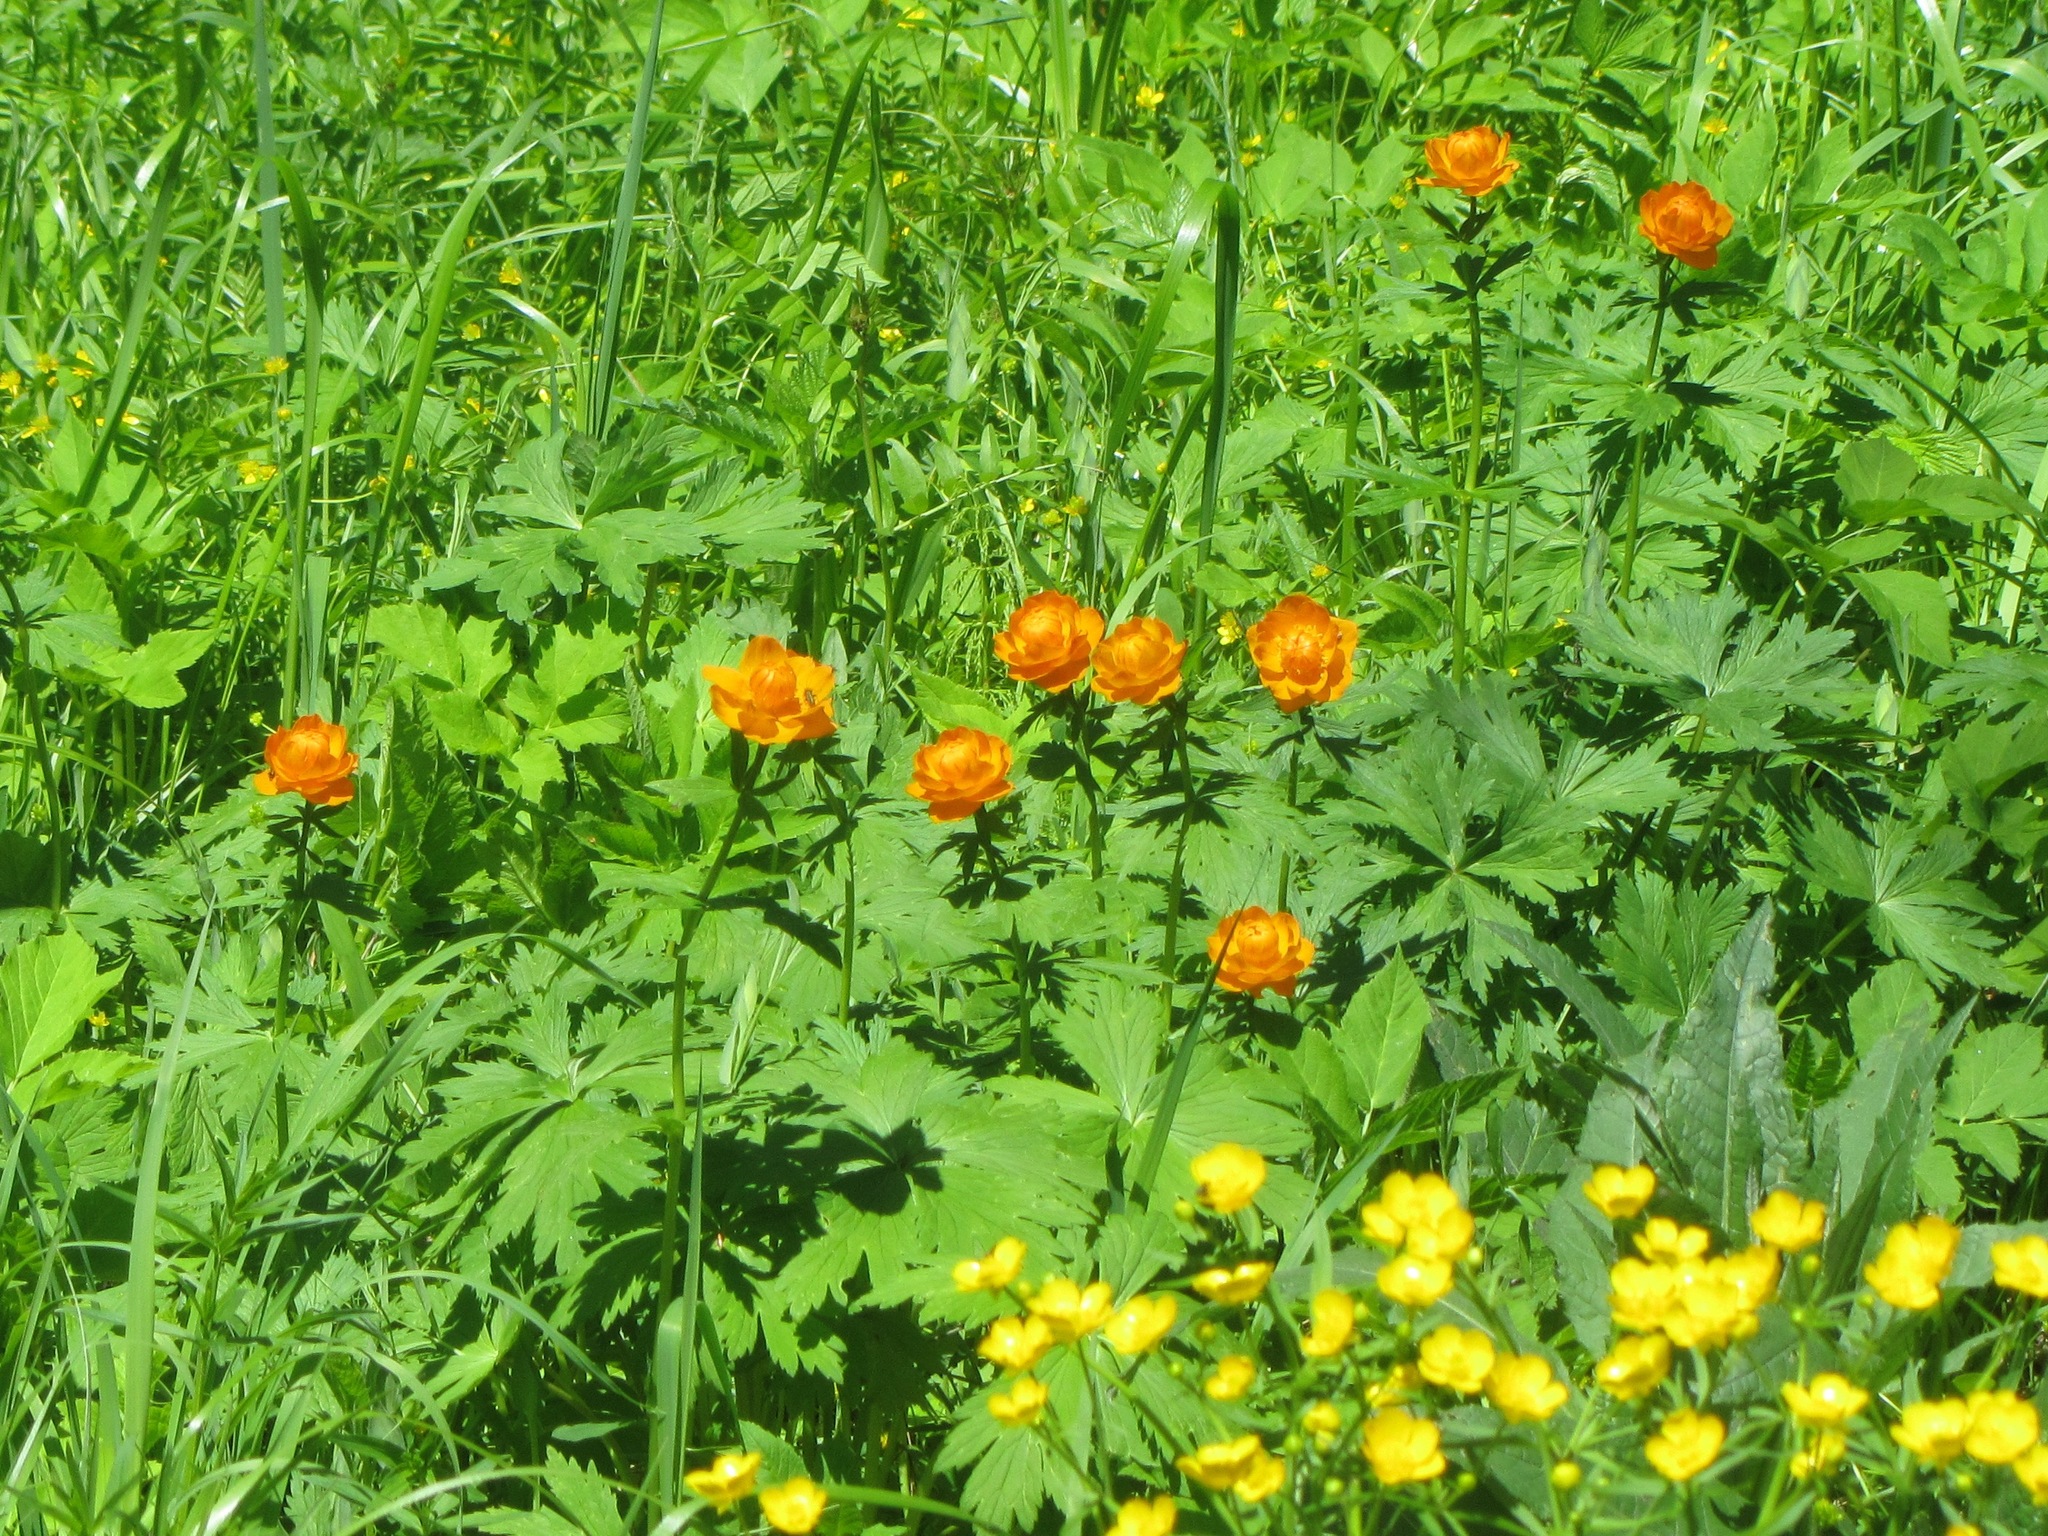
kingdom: Plantae
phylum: Tracheophyta
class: Magnoliopsida
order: Ranunculales
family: Ranunculaceae
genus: Trollius
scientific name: Trollius asiaticus
